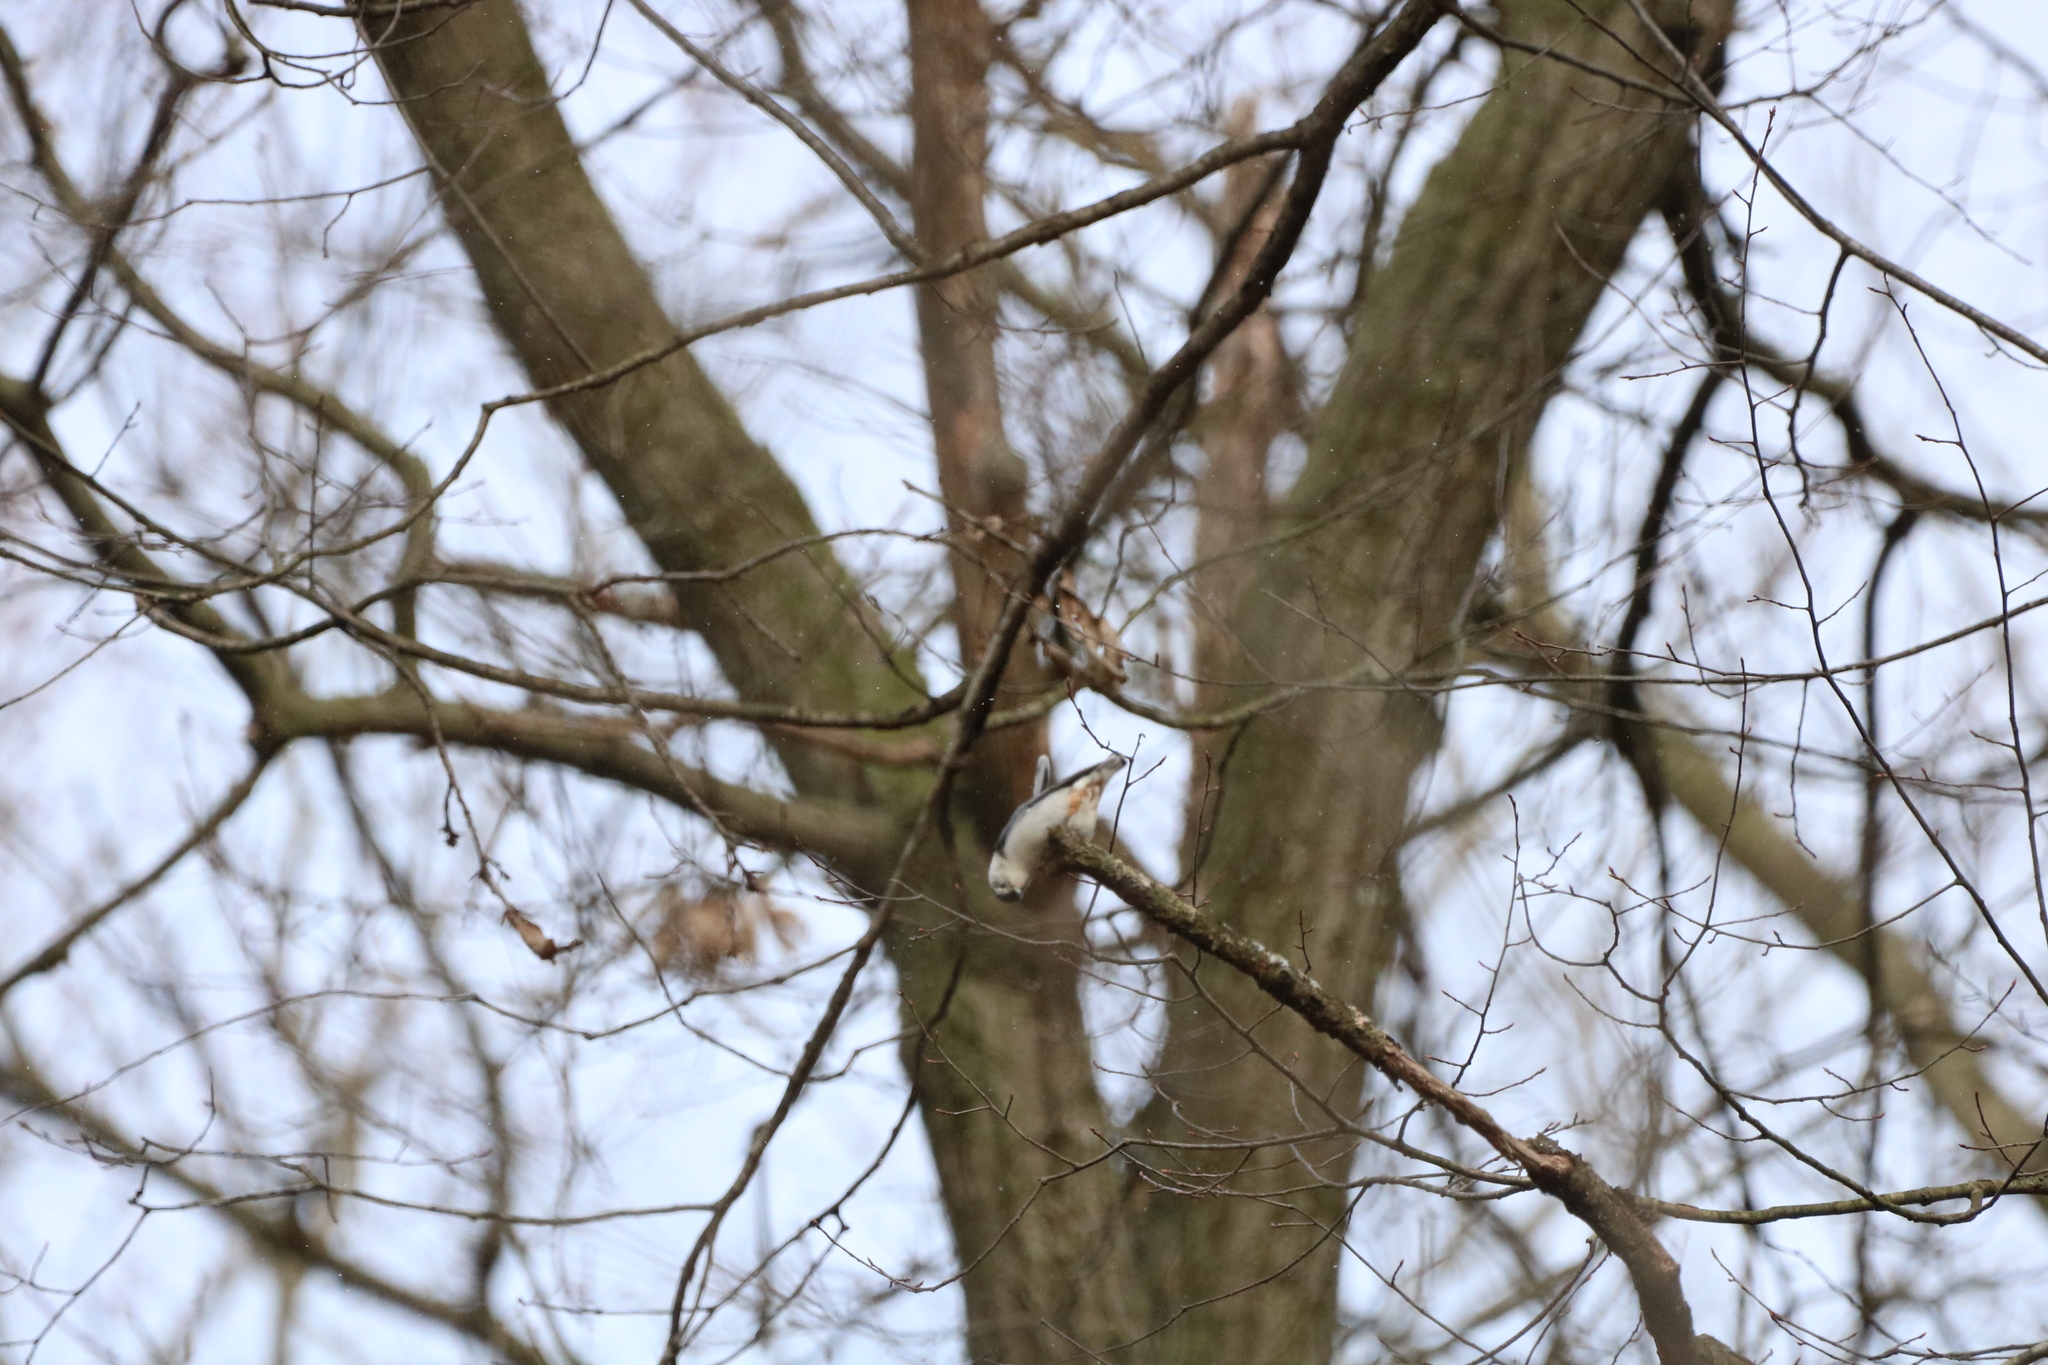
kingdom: Animalia
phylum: Chordata
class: Aves
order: Passeriformes
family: Sittidae
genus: Sitta
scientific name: Sitta carolinensis
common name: White-breasted nuthatch
